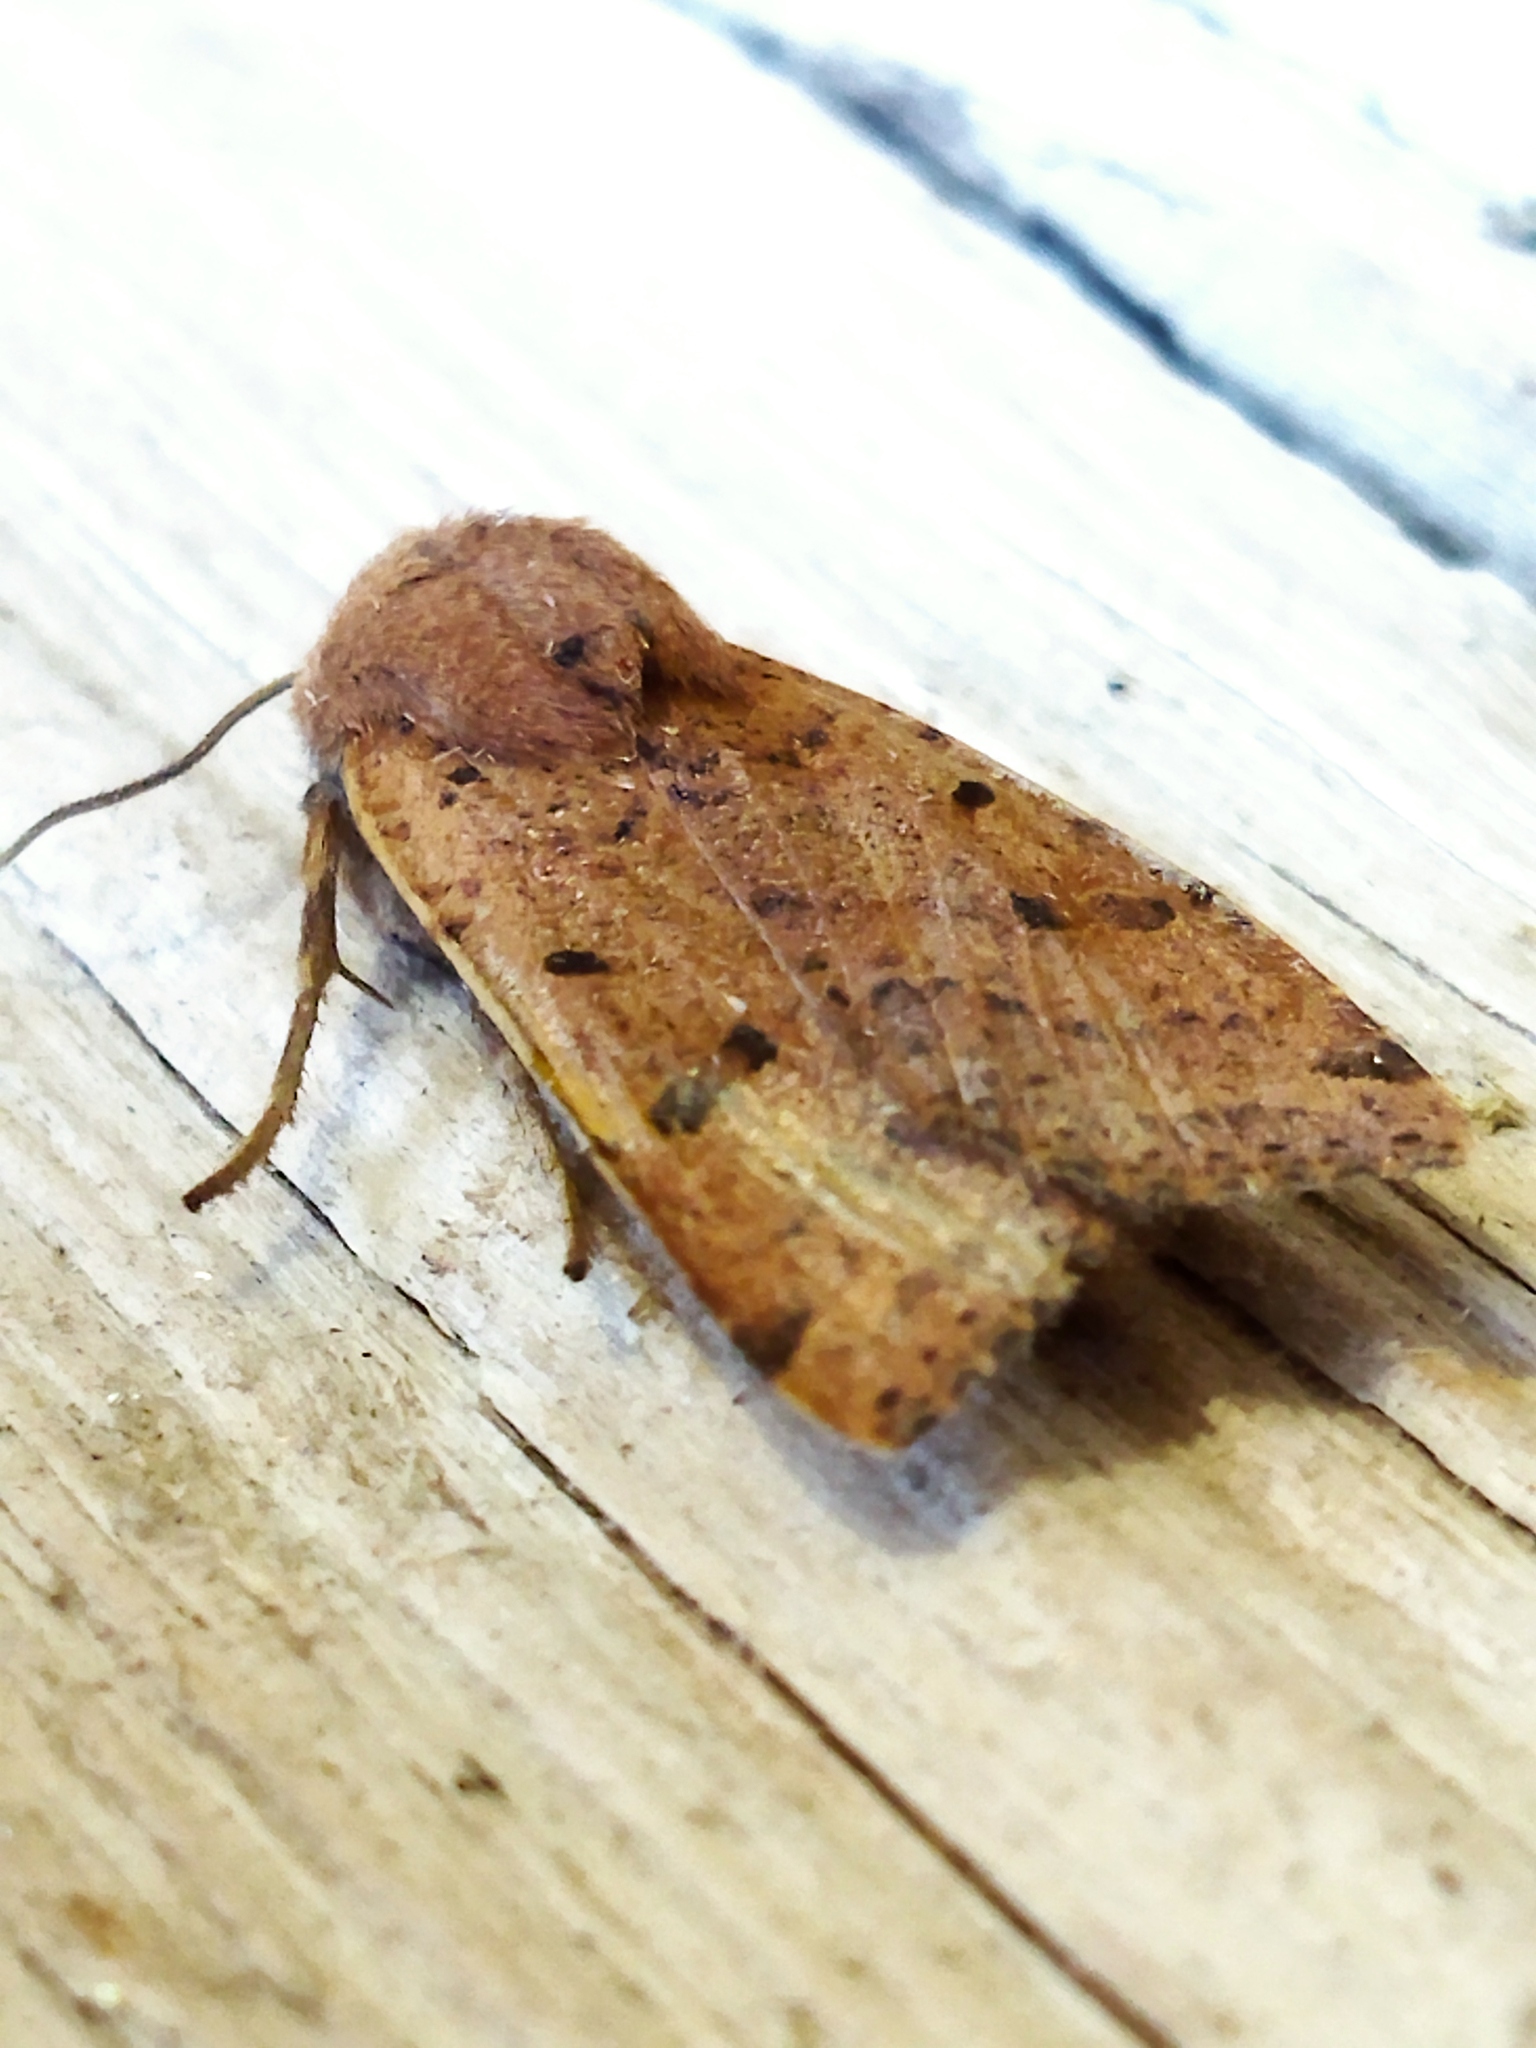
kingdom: Animalia
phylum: Arthropoda
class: Insecta
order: Lepidoptera
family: Noctuidae
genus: Agrochola
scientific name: Agrochola lychnidis
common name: Beaded chestnut
